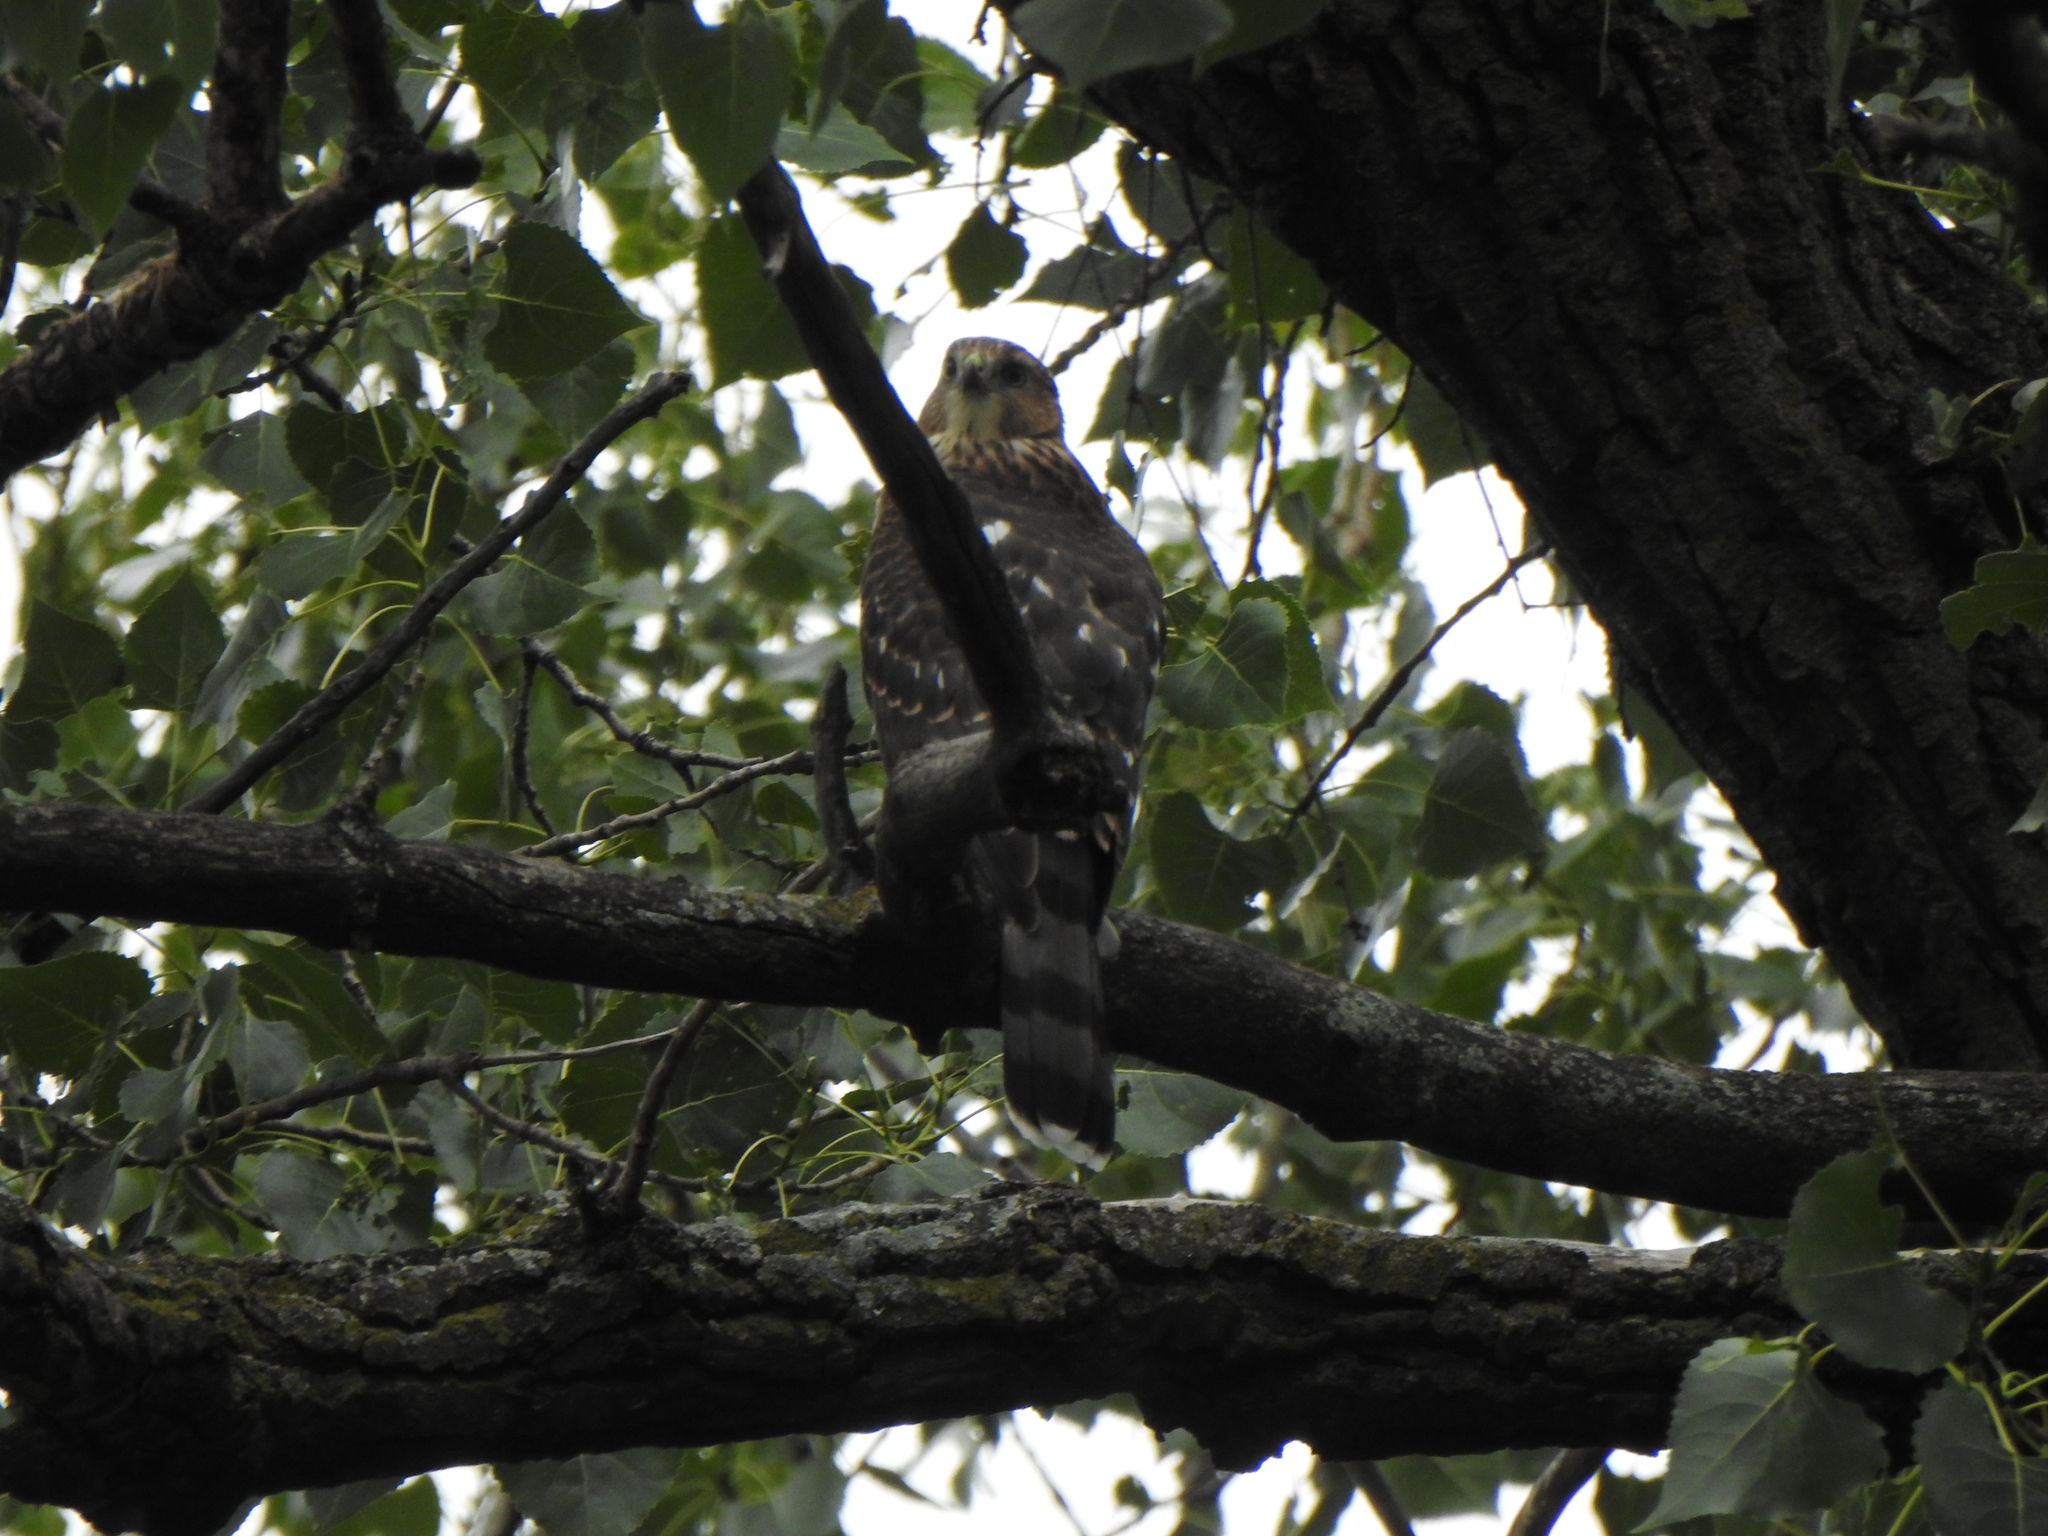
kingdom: Animalia
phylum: Chordata
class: Aves
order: Accipitriformes
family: Accipitridae
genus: Accipiter
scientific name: Accipiter cooperii
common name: Cooper's hawk
